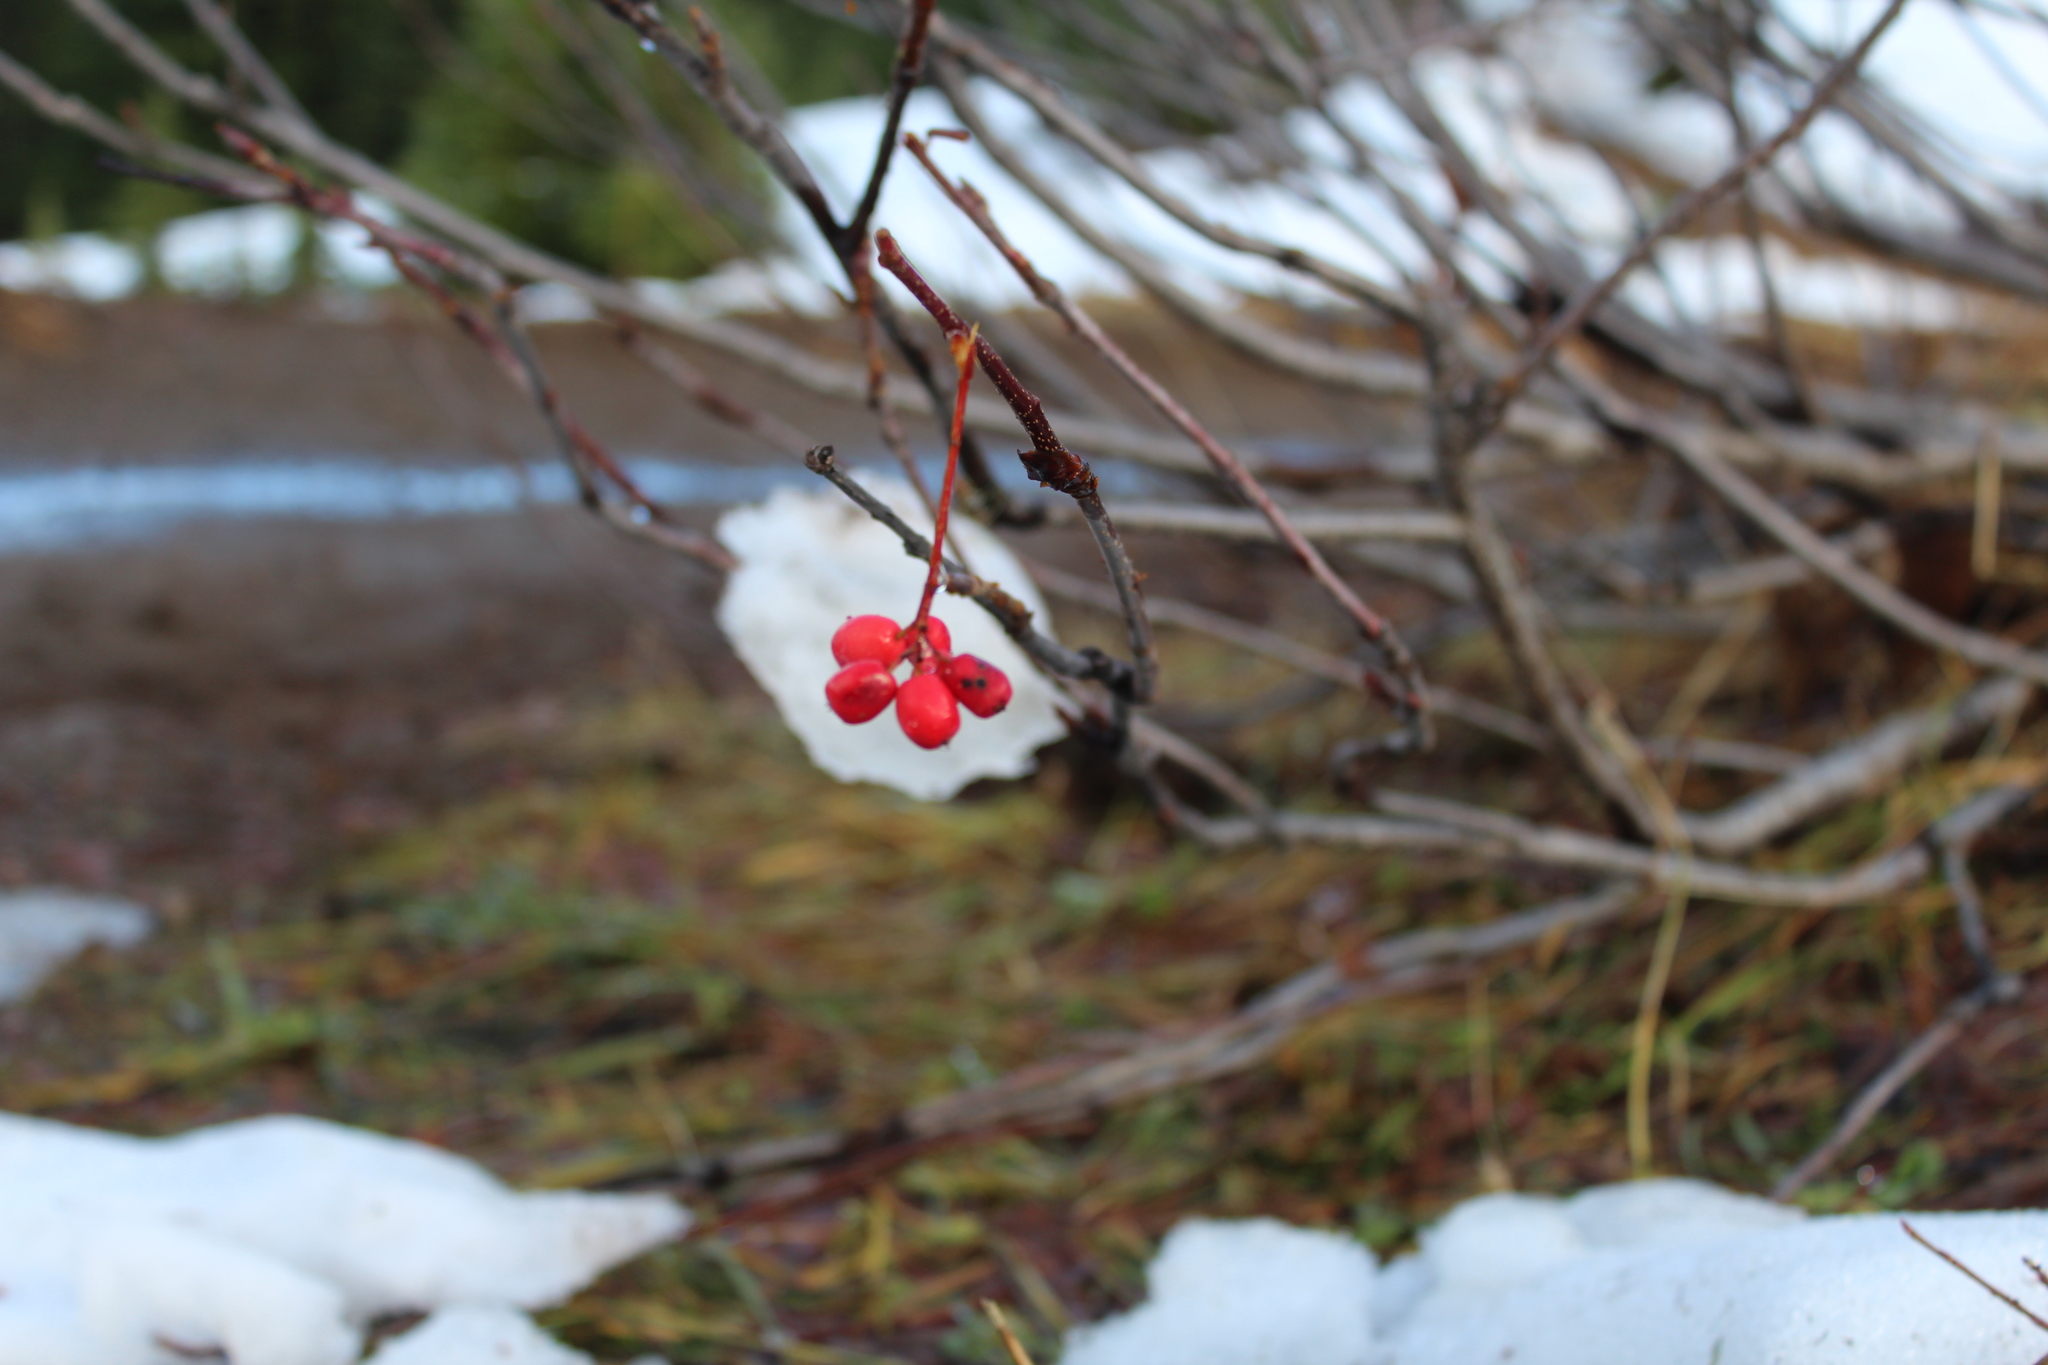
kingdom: Plantae
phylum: Tracheophyta
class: Magnoliopsida
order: Dipsacales
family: Viburnaceae
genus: Viburnum
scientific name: Viburnum edule
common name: Mooseberry
